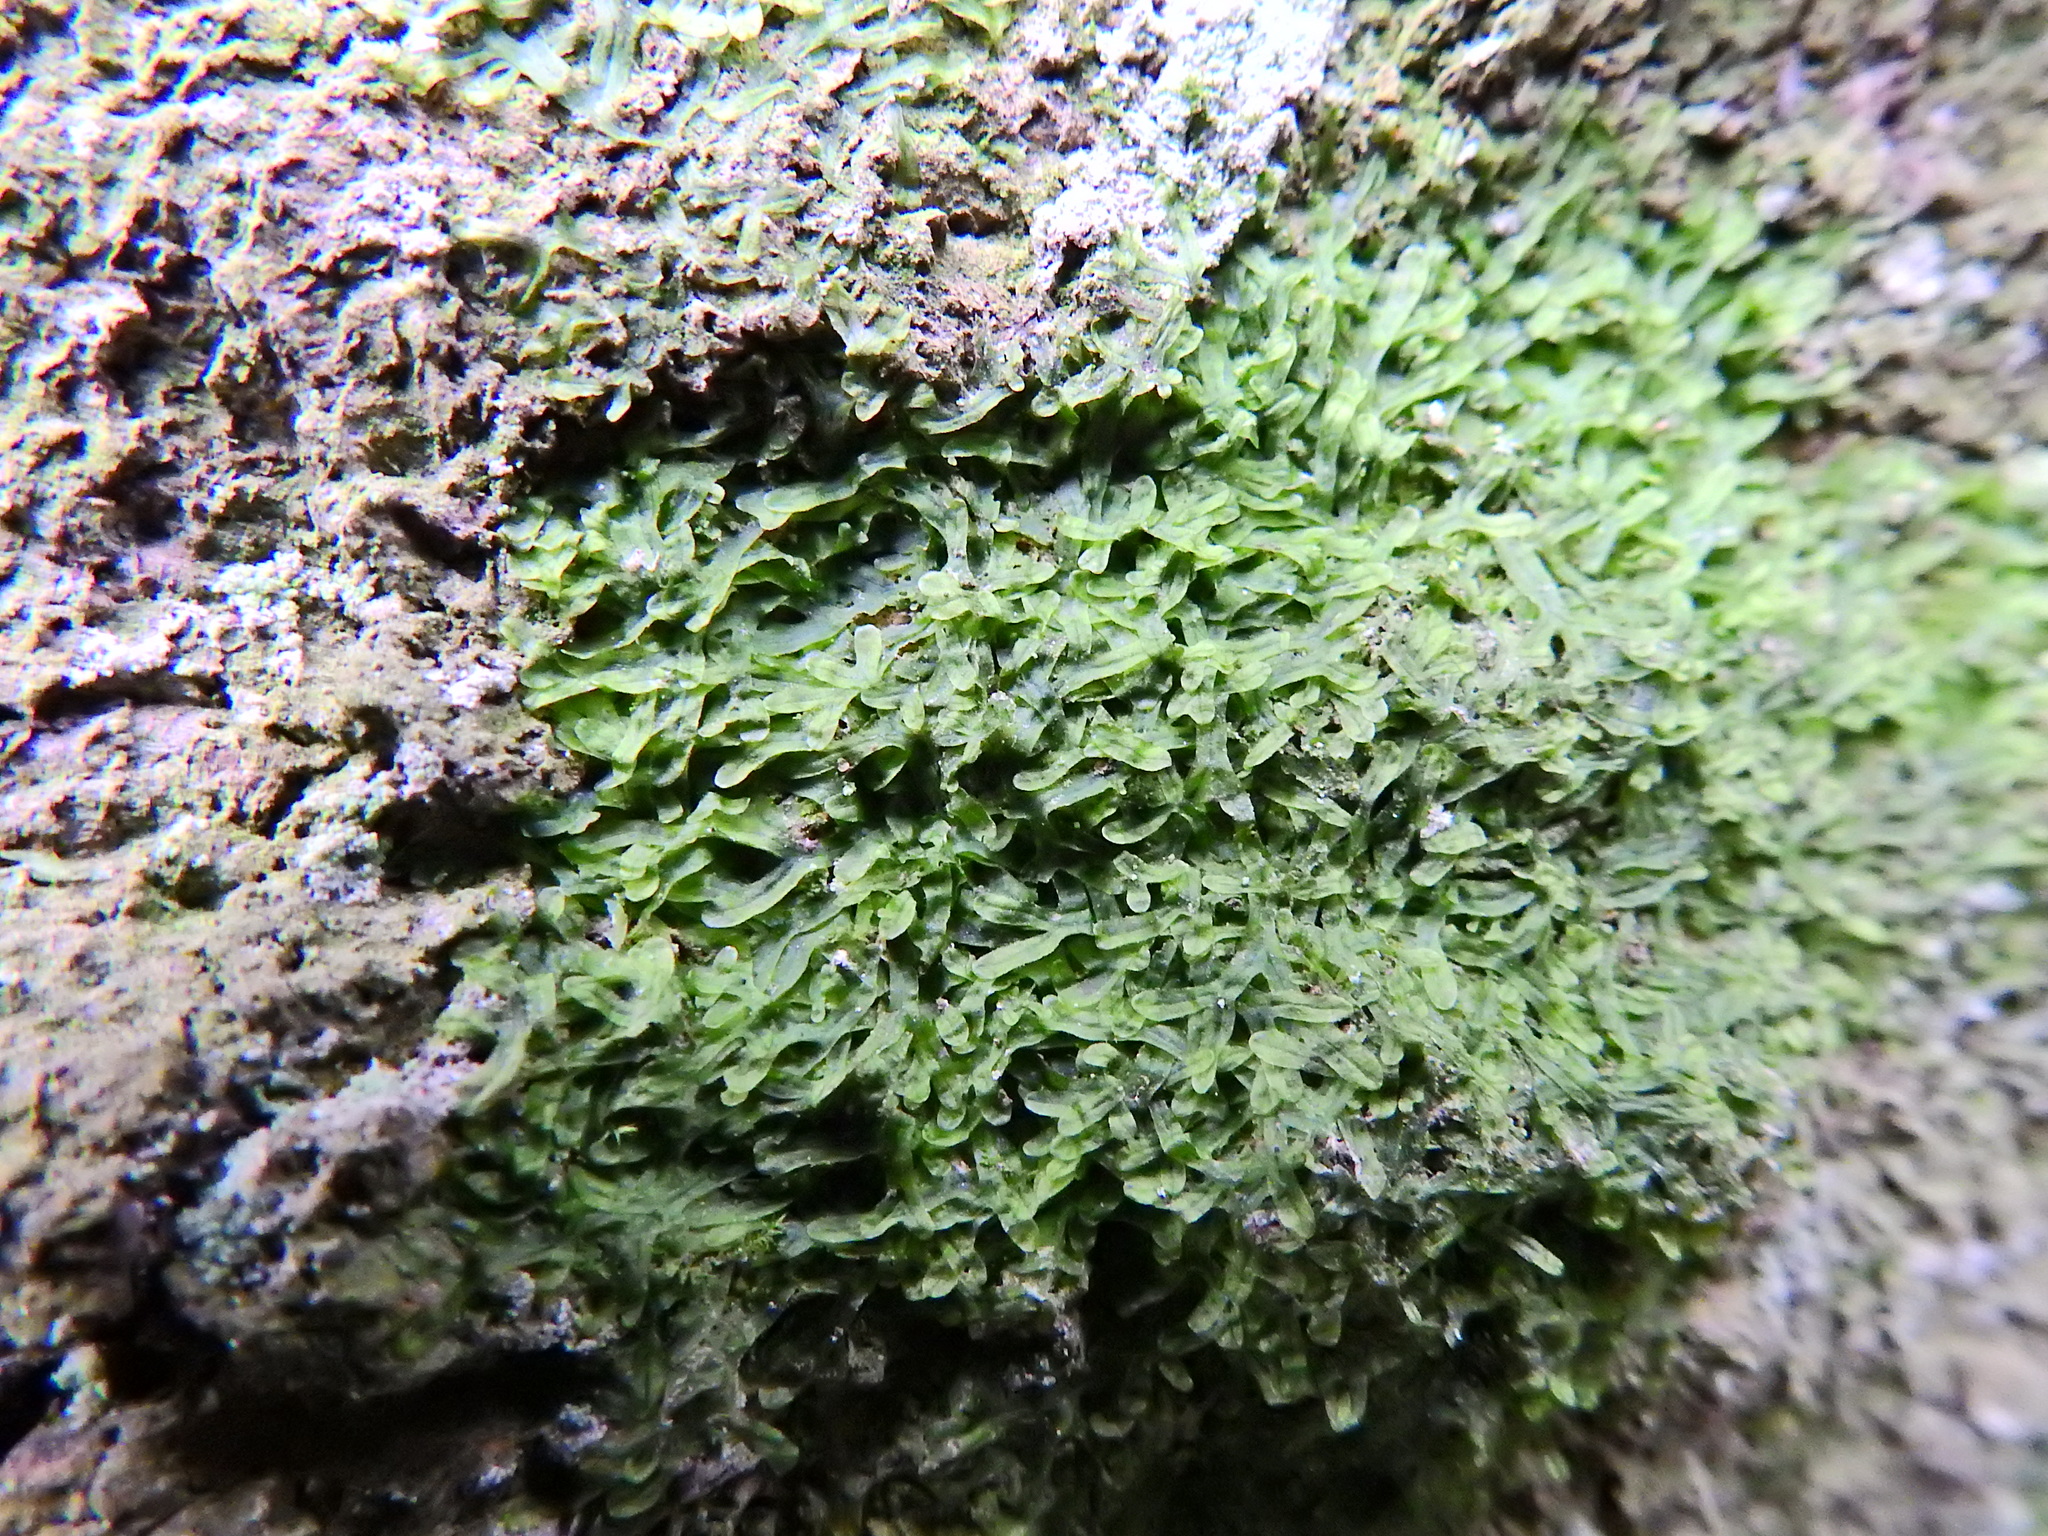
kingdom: Plantae
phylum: Marchantiophyta
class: Jungermanniopsida
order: Metzgeriales
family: Metzgeriaceae
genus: Metzgeria
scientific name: Metzgeria furcata
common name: Forked veilwort
